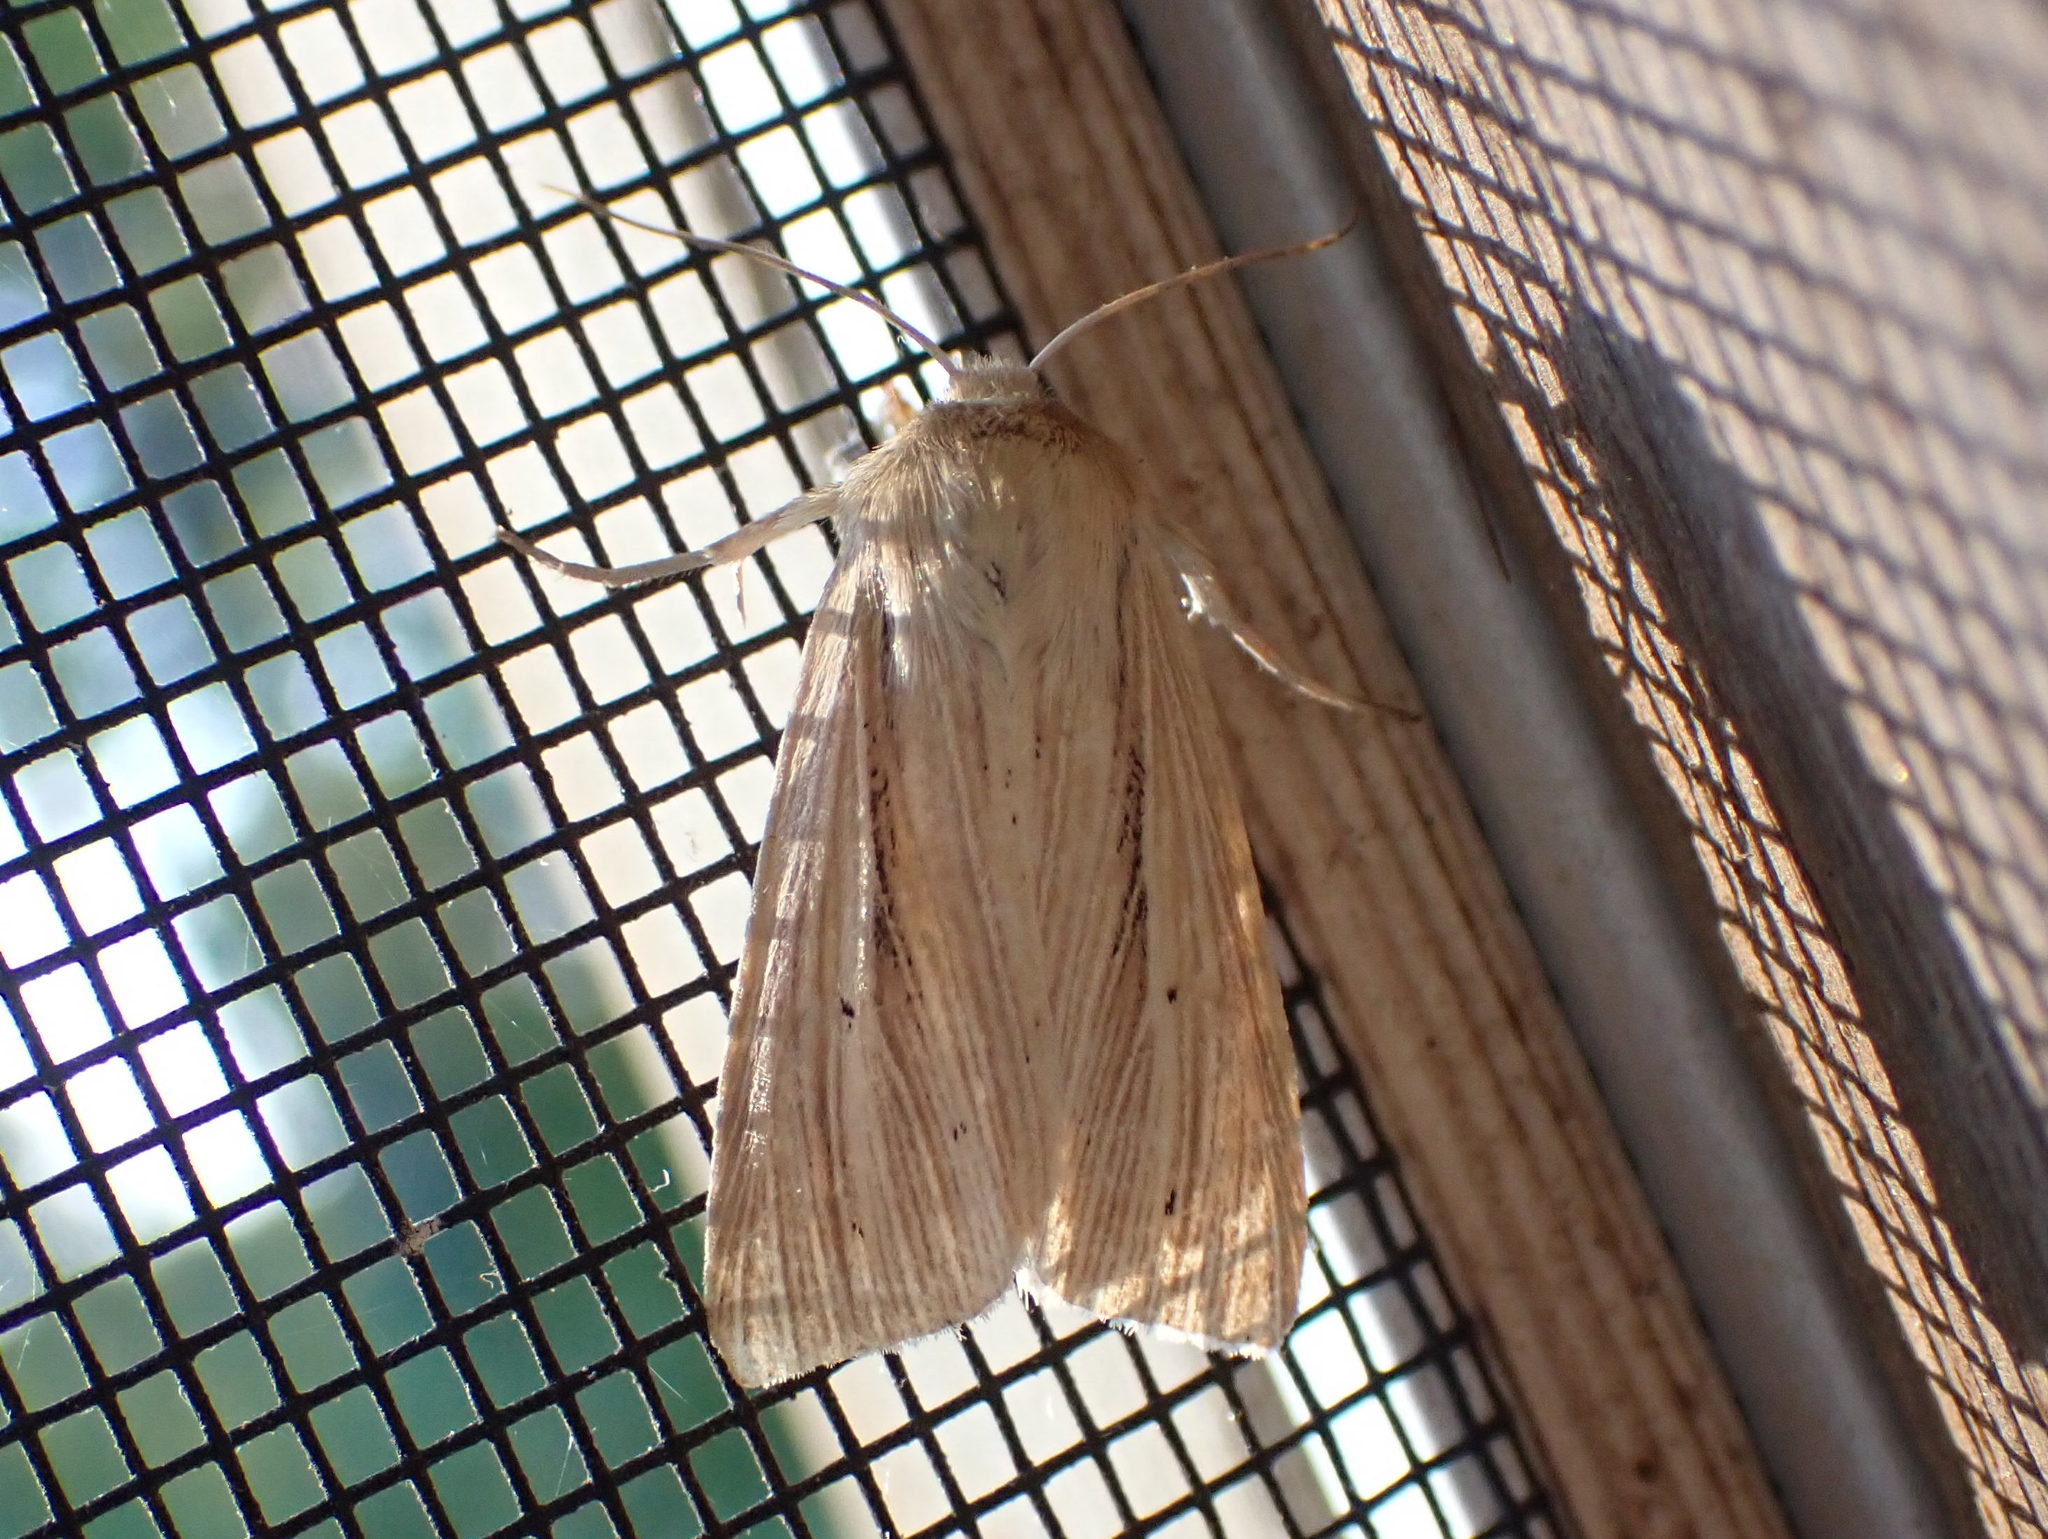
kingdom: Animalia
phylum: Arthropoda
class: Insecta
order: Lepidoptera
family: Noctuidae
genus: Mythimna
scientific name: Mythimna oxygala
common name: Lesser wainscot
